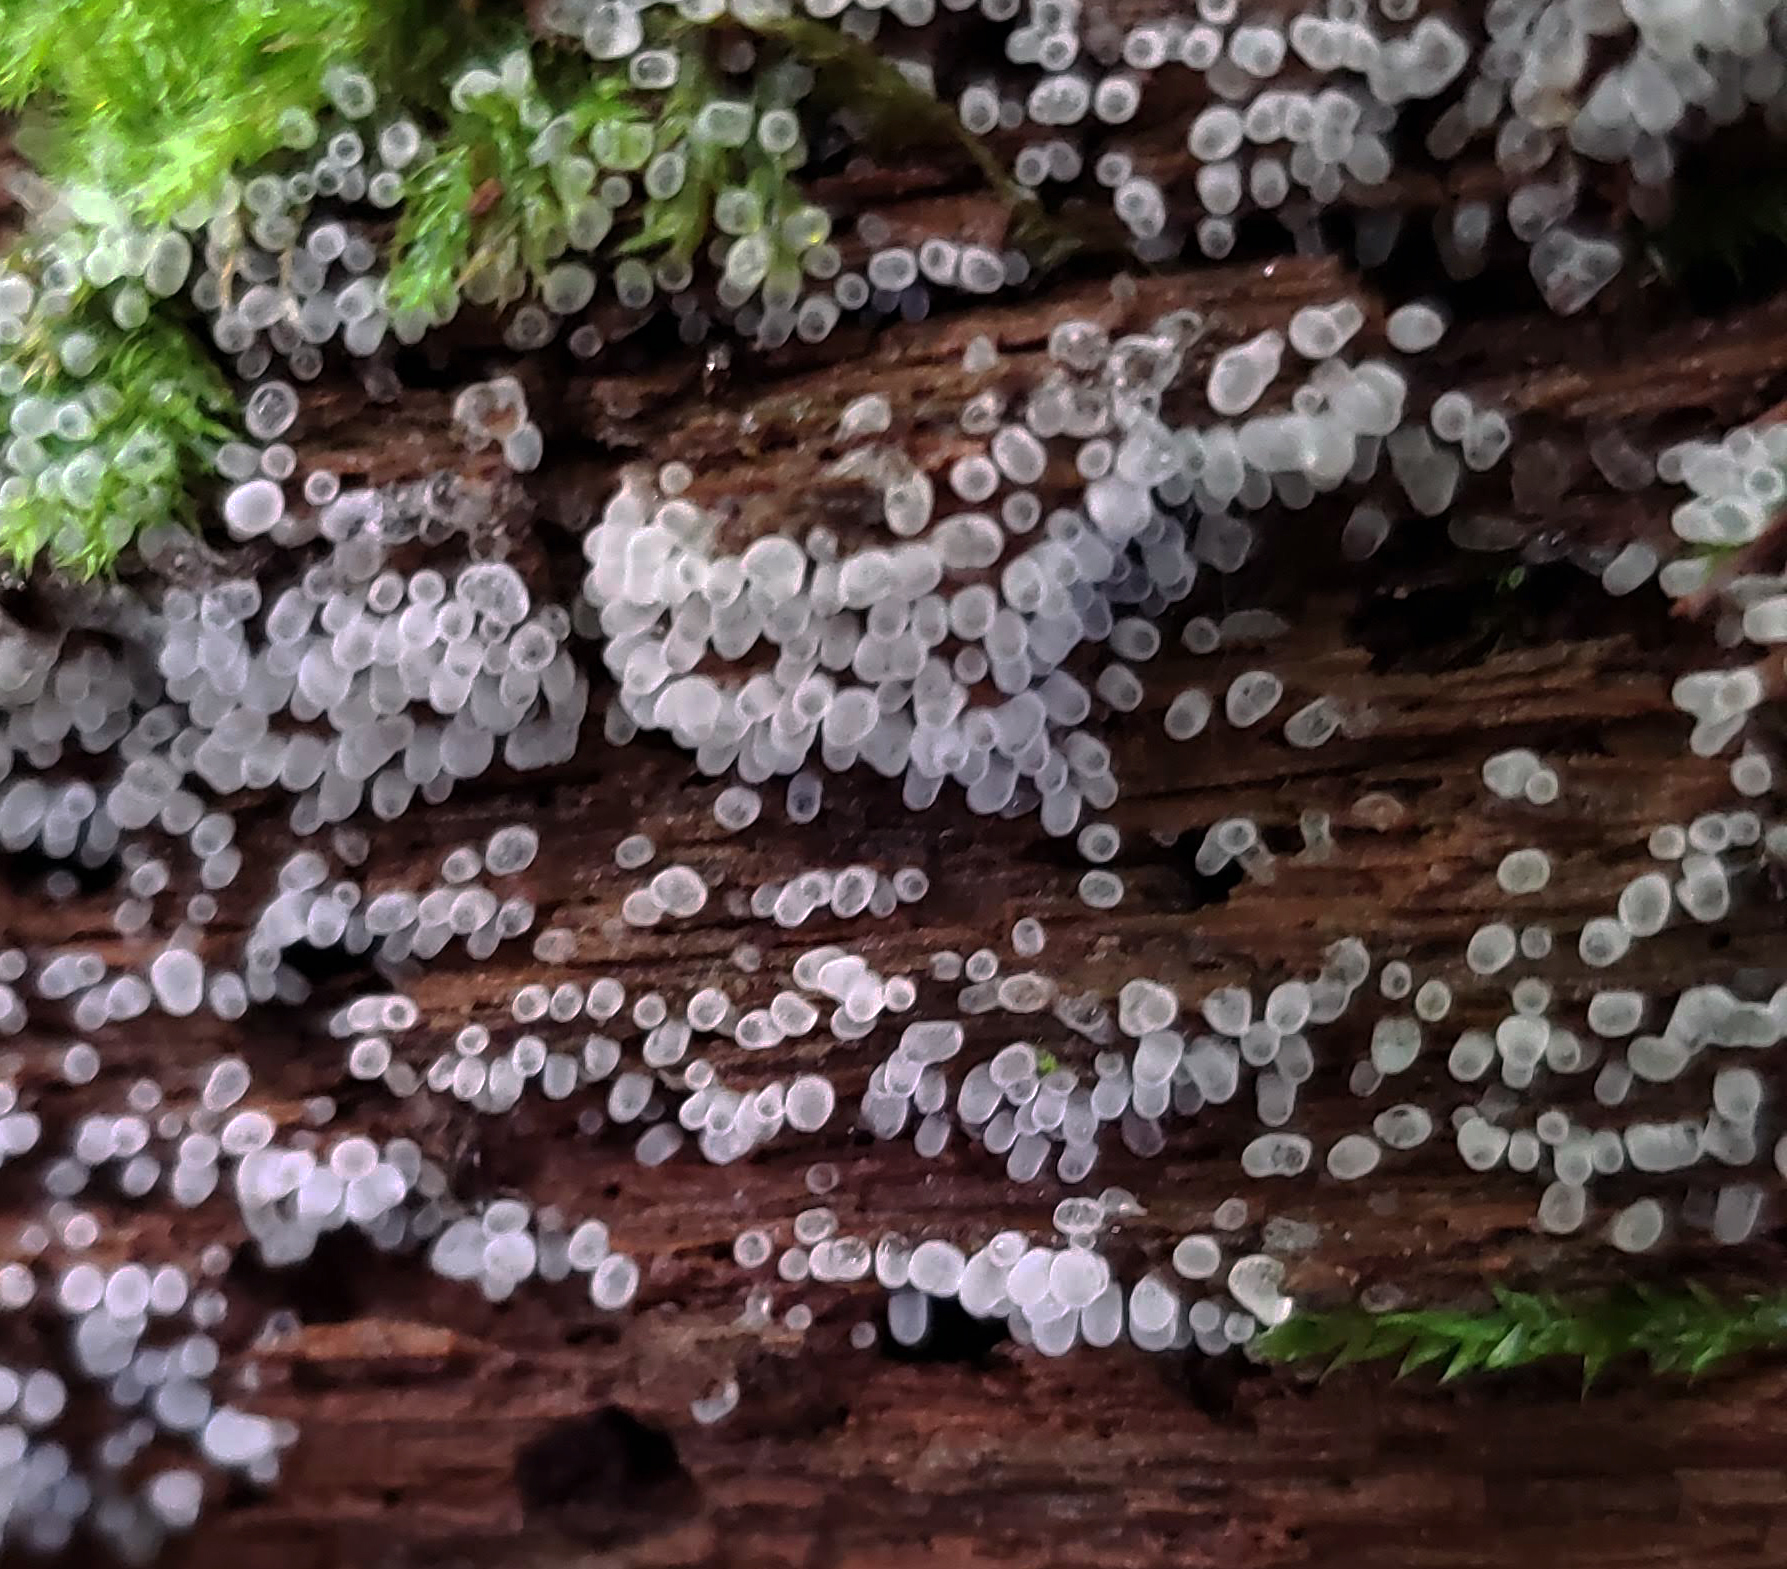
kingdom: Protozoa
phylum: Mycetozoa
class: Protosteliomycetes
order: Ceratiomyxales
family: Ceratiomyxaceae
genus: Ceratiomyxa
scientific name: Ceratiomyxa fruticulosa
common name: Honeycomb coral slime mold
